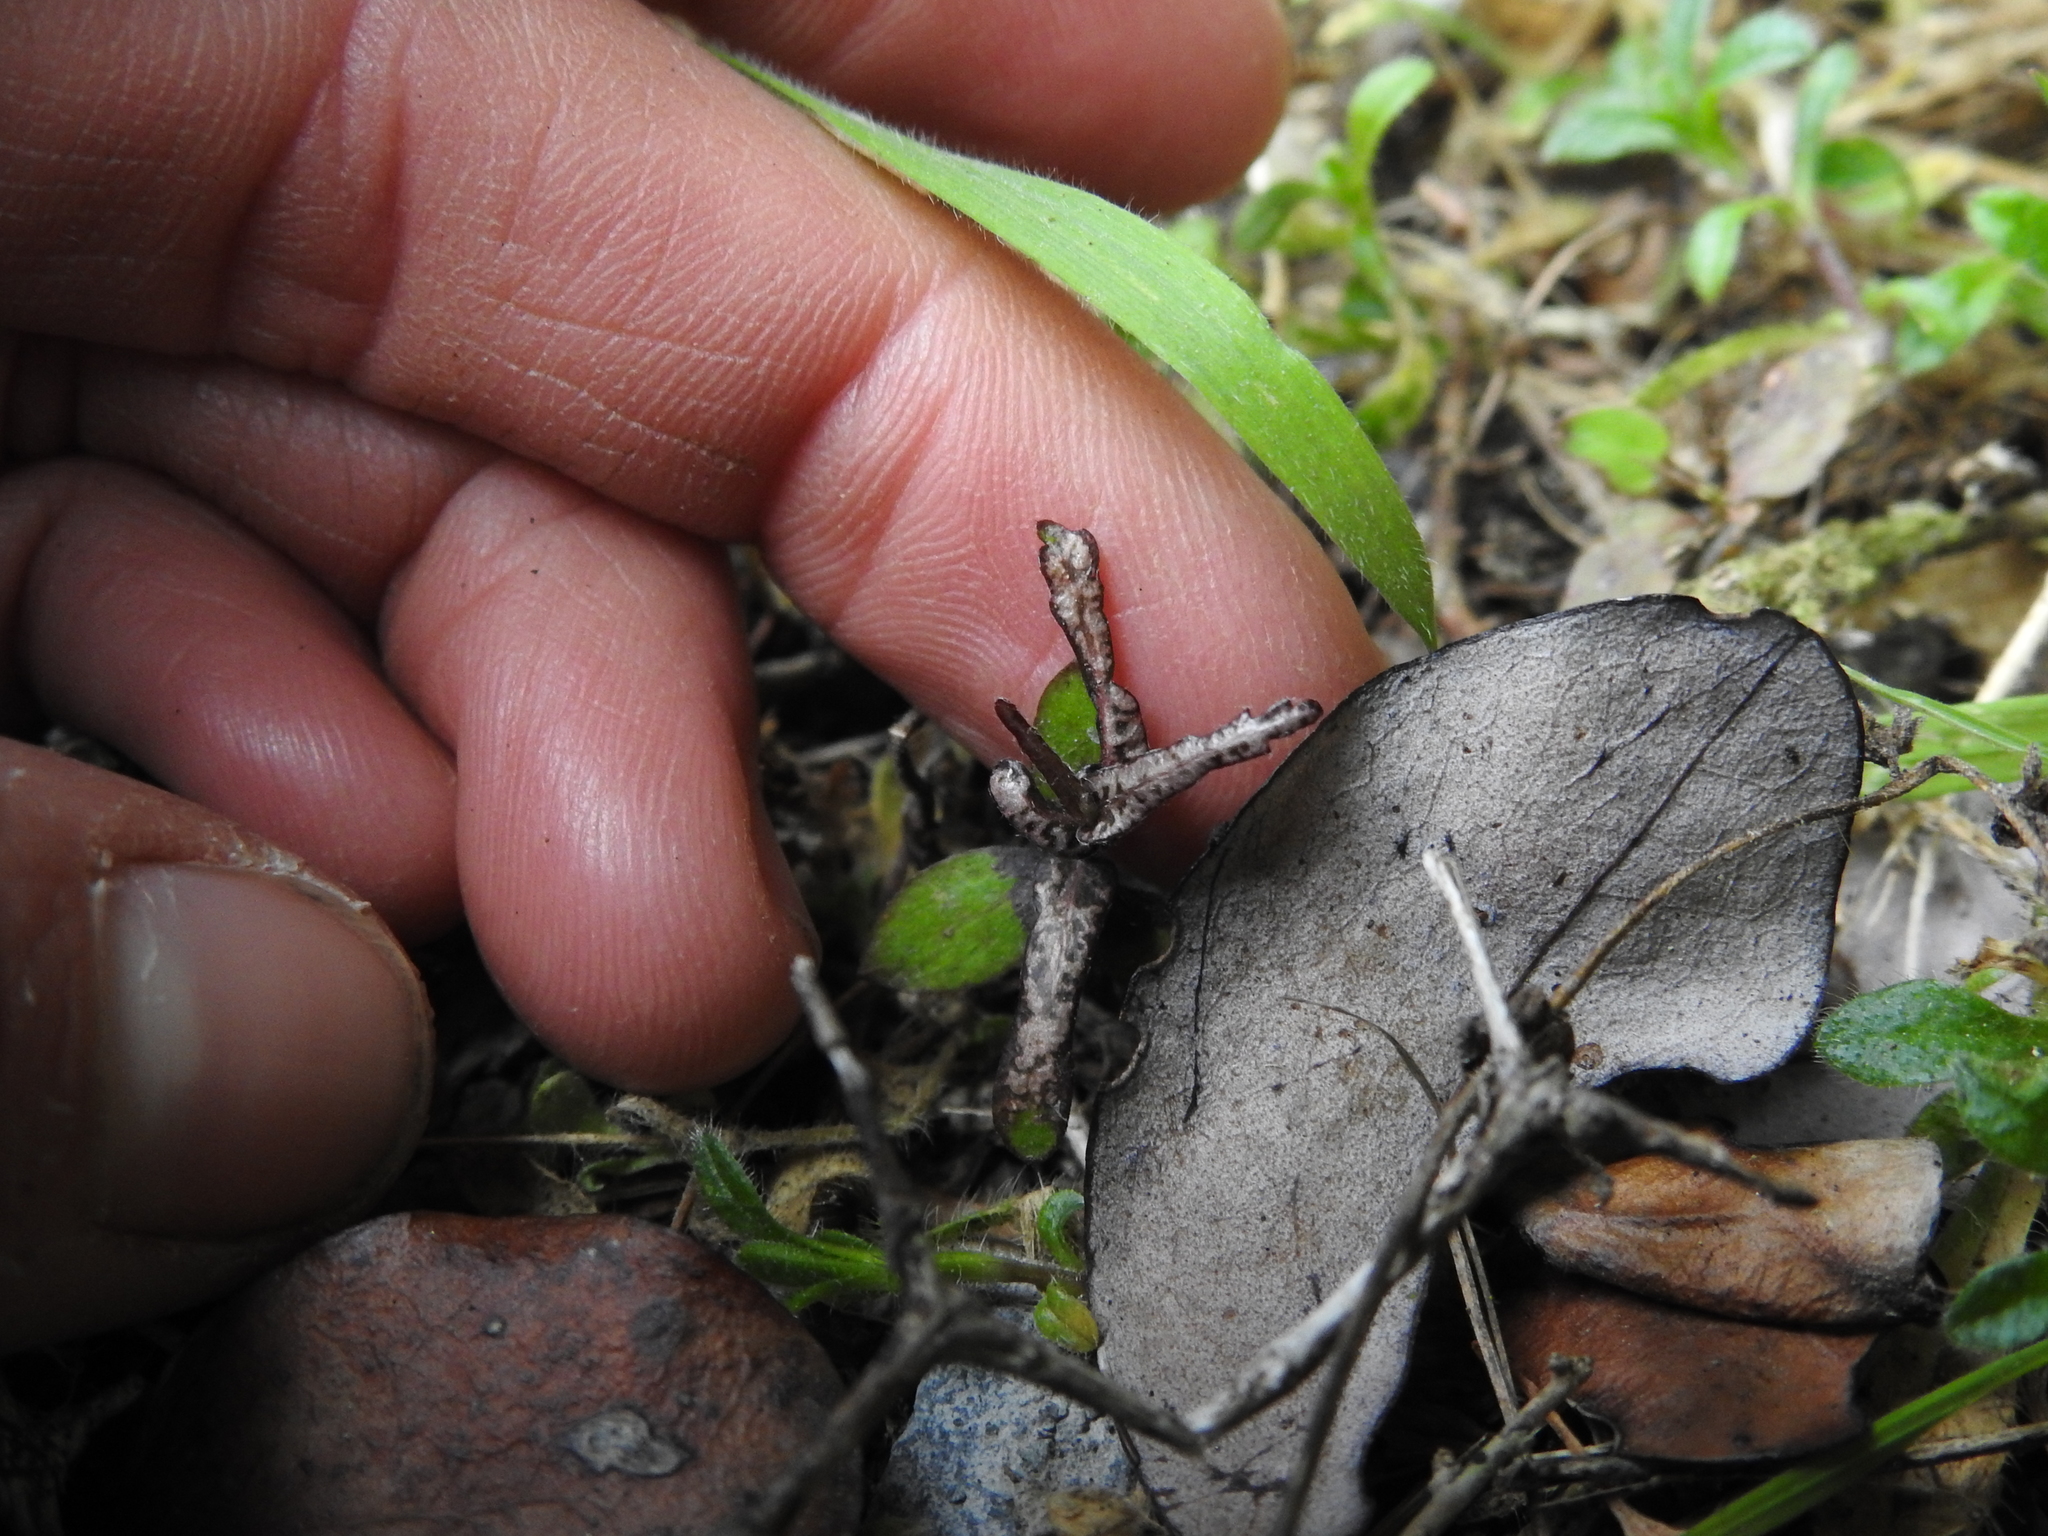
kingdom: Plantae
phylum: Tracheophyta
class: Magnoliopsida
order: Apiales
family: Pittosporaceae
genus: Pittosporum
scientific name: Pittosporum obcordatum
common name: Heart-leaved kohuhu
